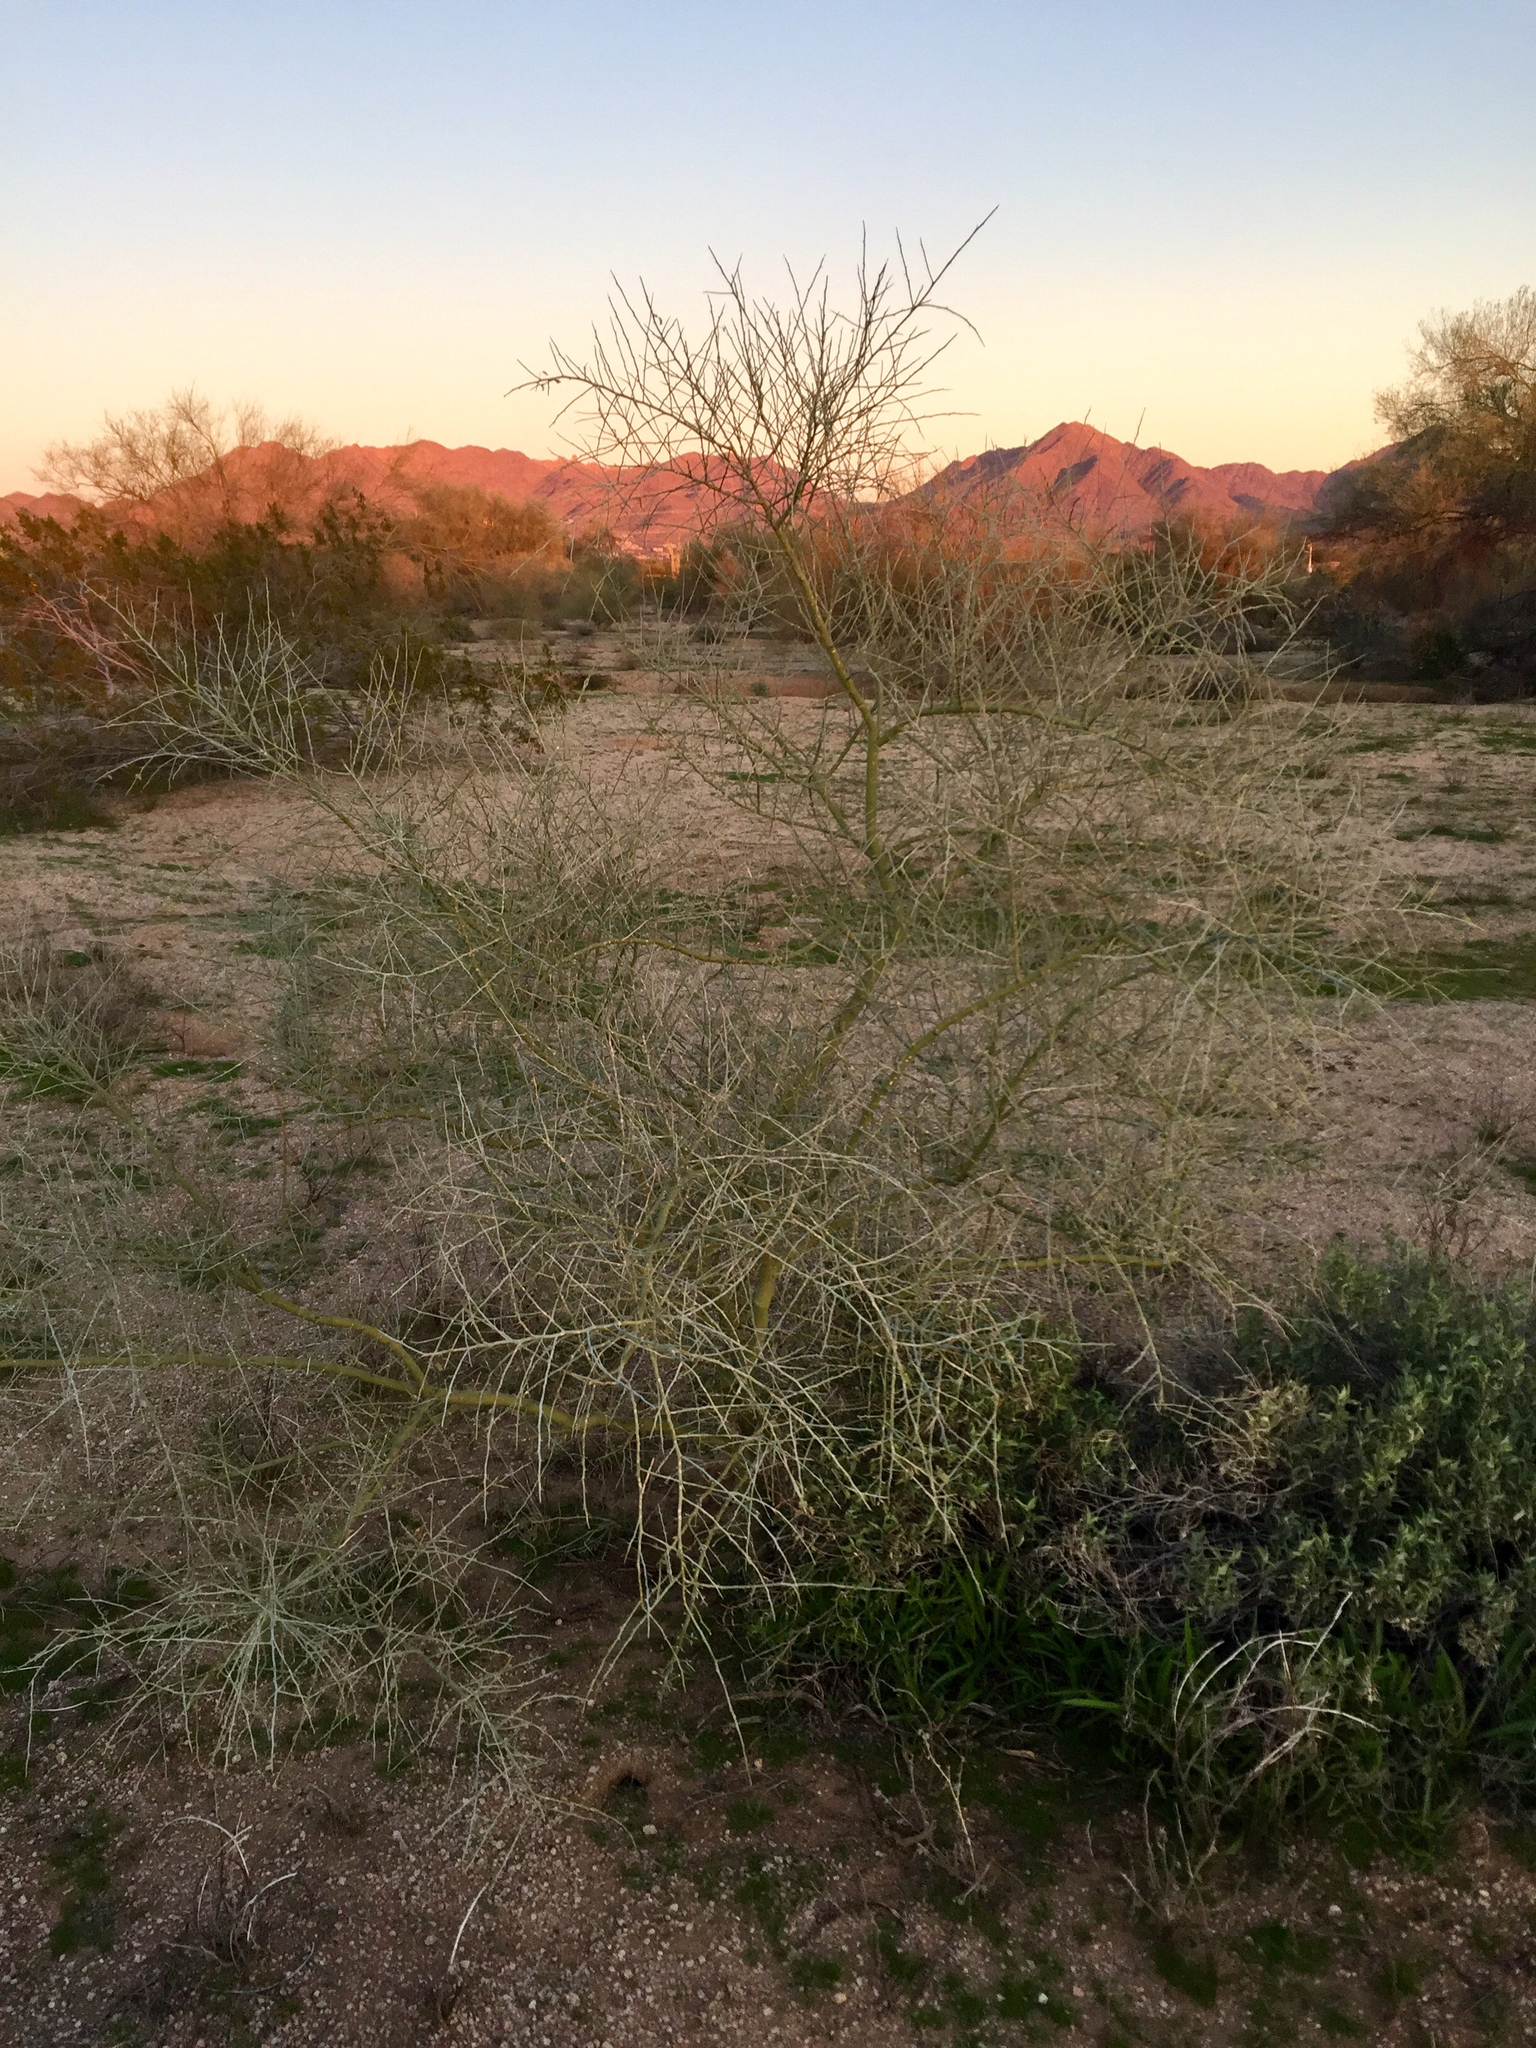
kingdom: Plantae
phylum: Tracheophyta
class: Magnoliopsida
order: Fabales
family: Fabaceae
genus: Parkinsonia
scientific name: Parkinsonia florida
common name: Blue paloverde
